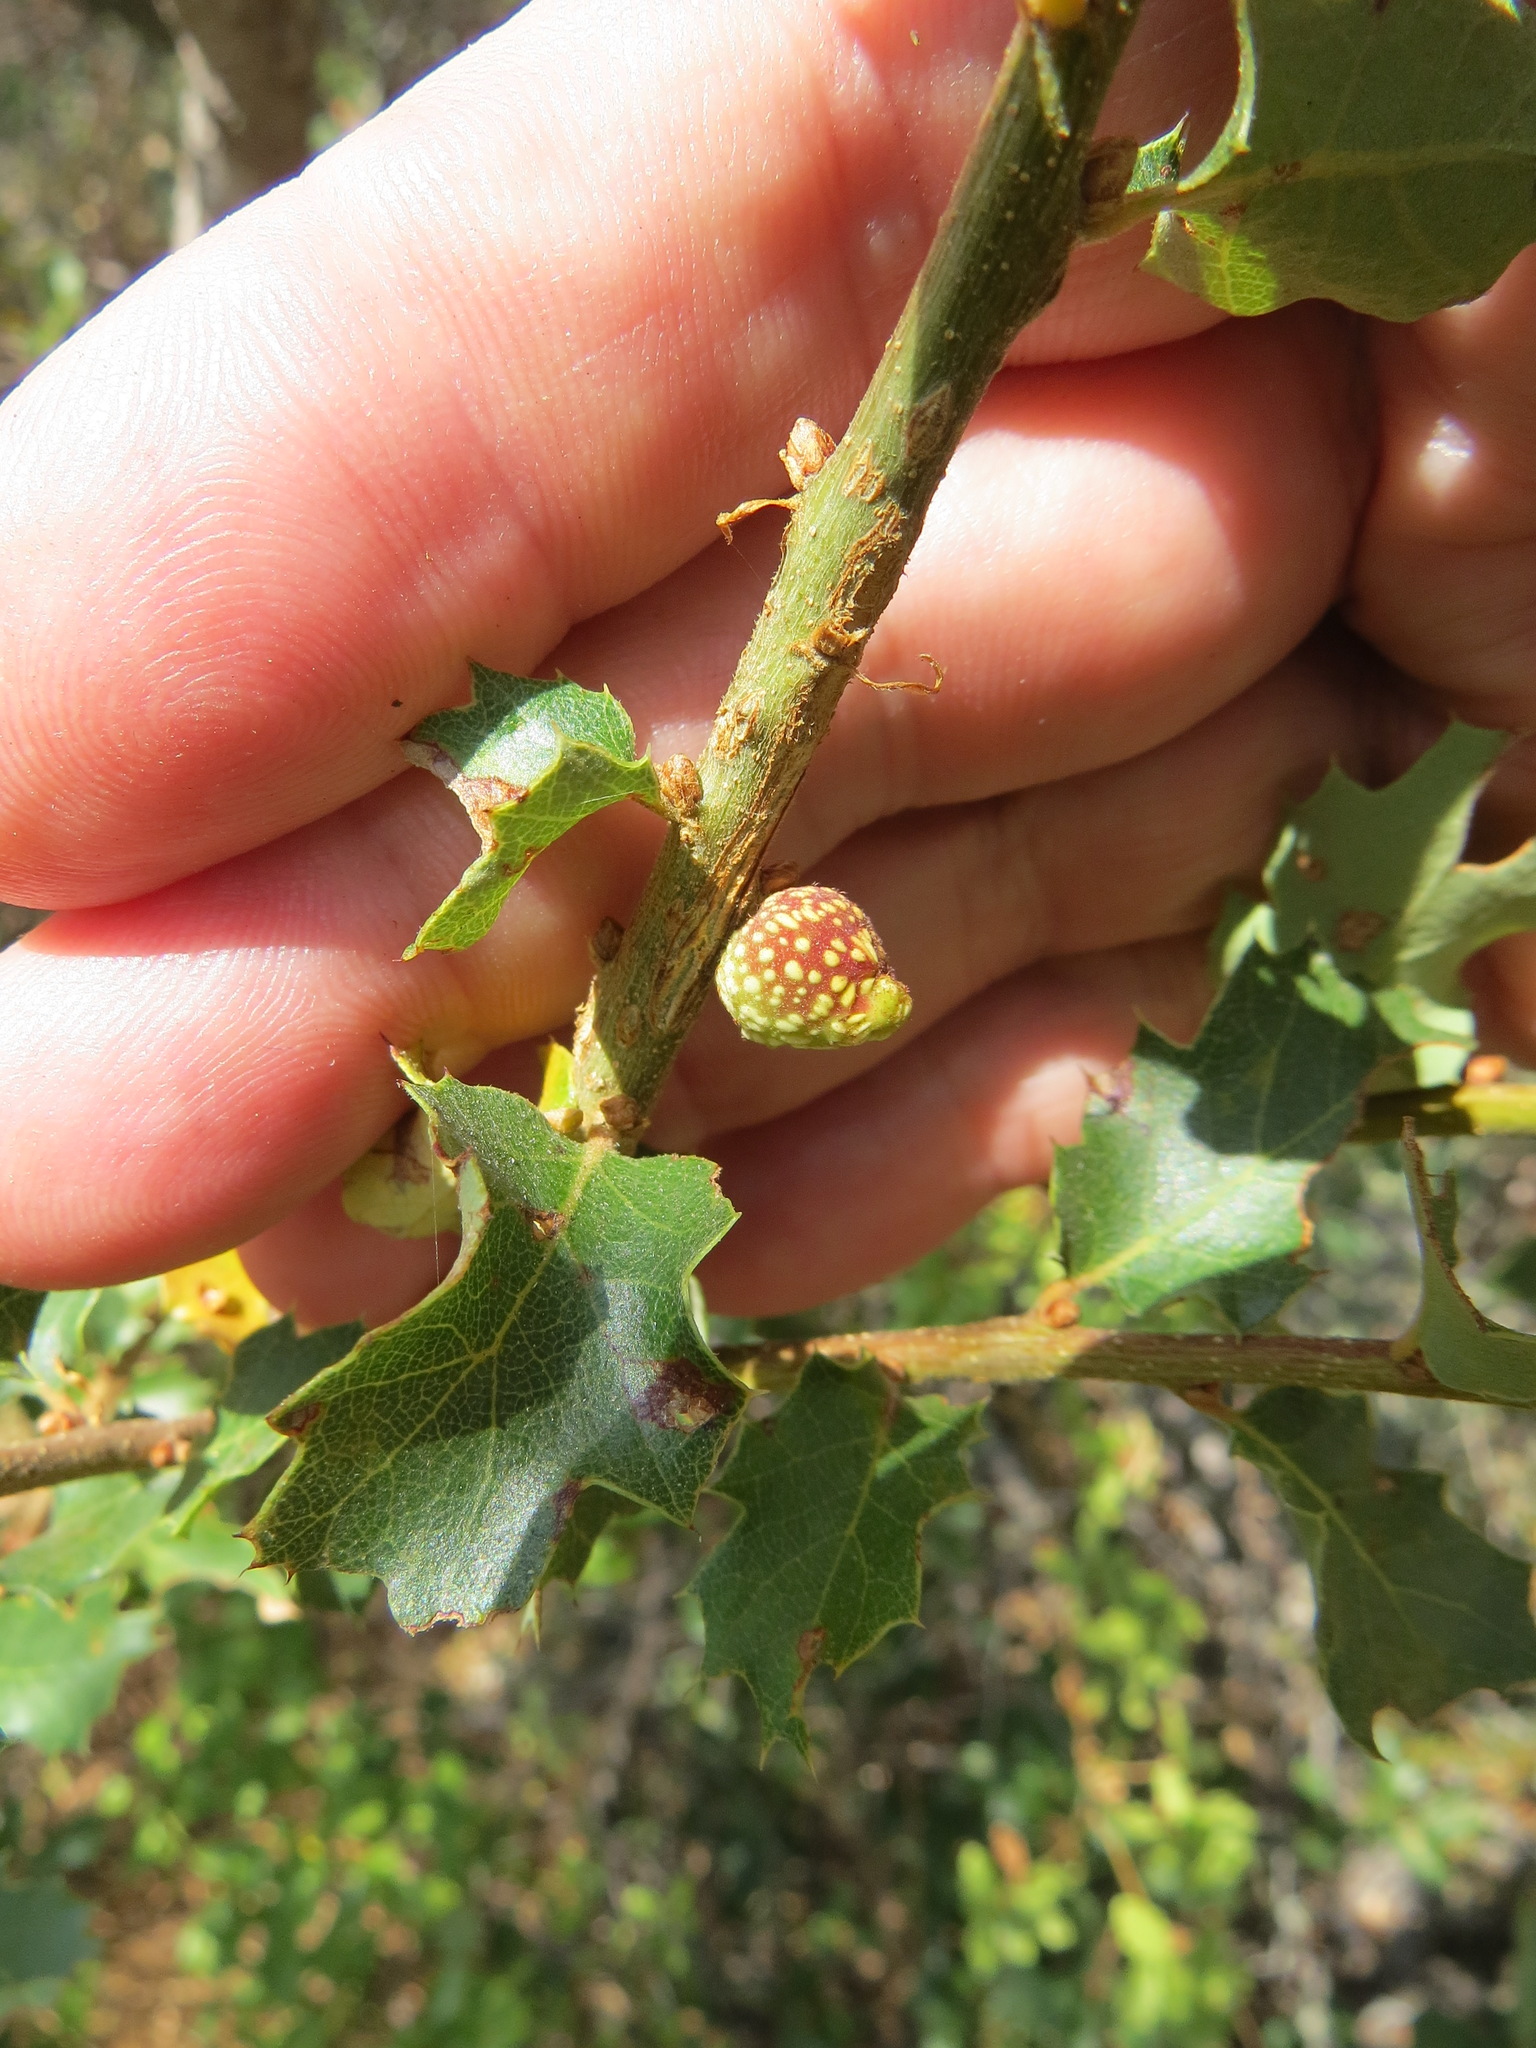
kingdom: Animalia
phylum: Arthropoda
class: Insecta
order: Hymenoptera
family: Cynipidae
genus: Burnettweldia
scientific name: Burnettweldia
